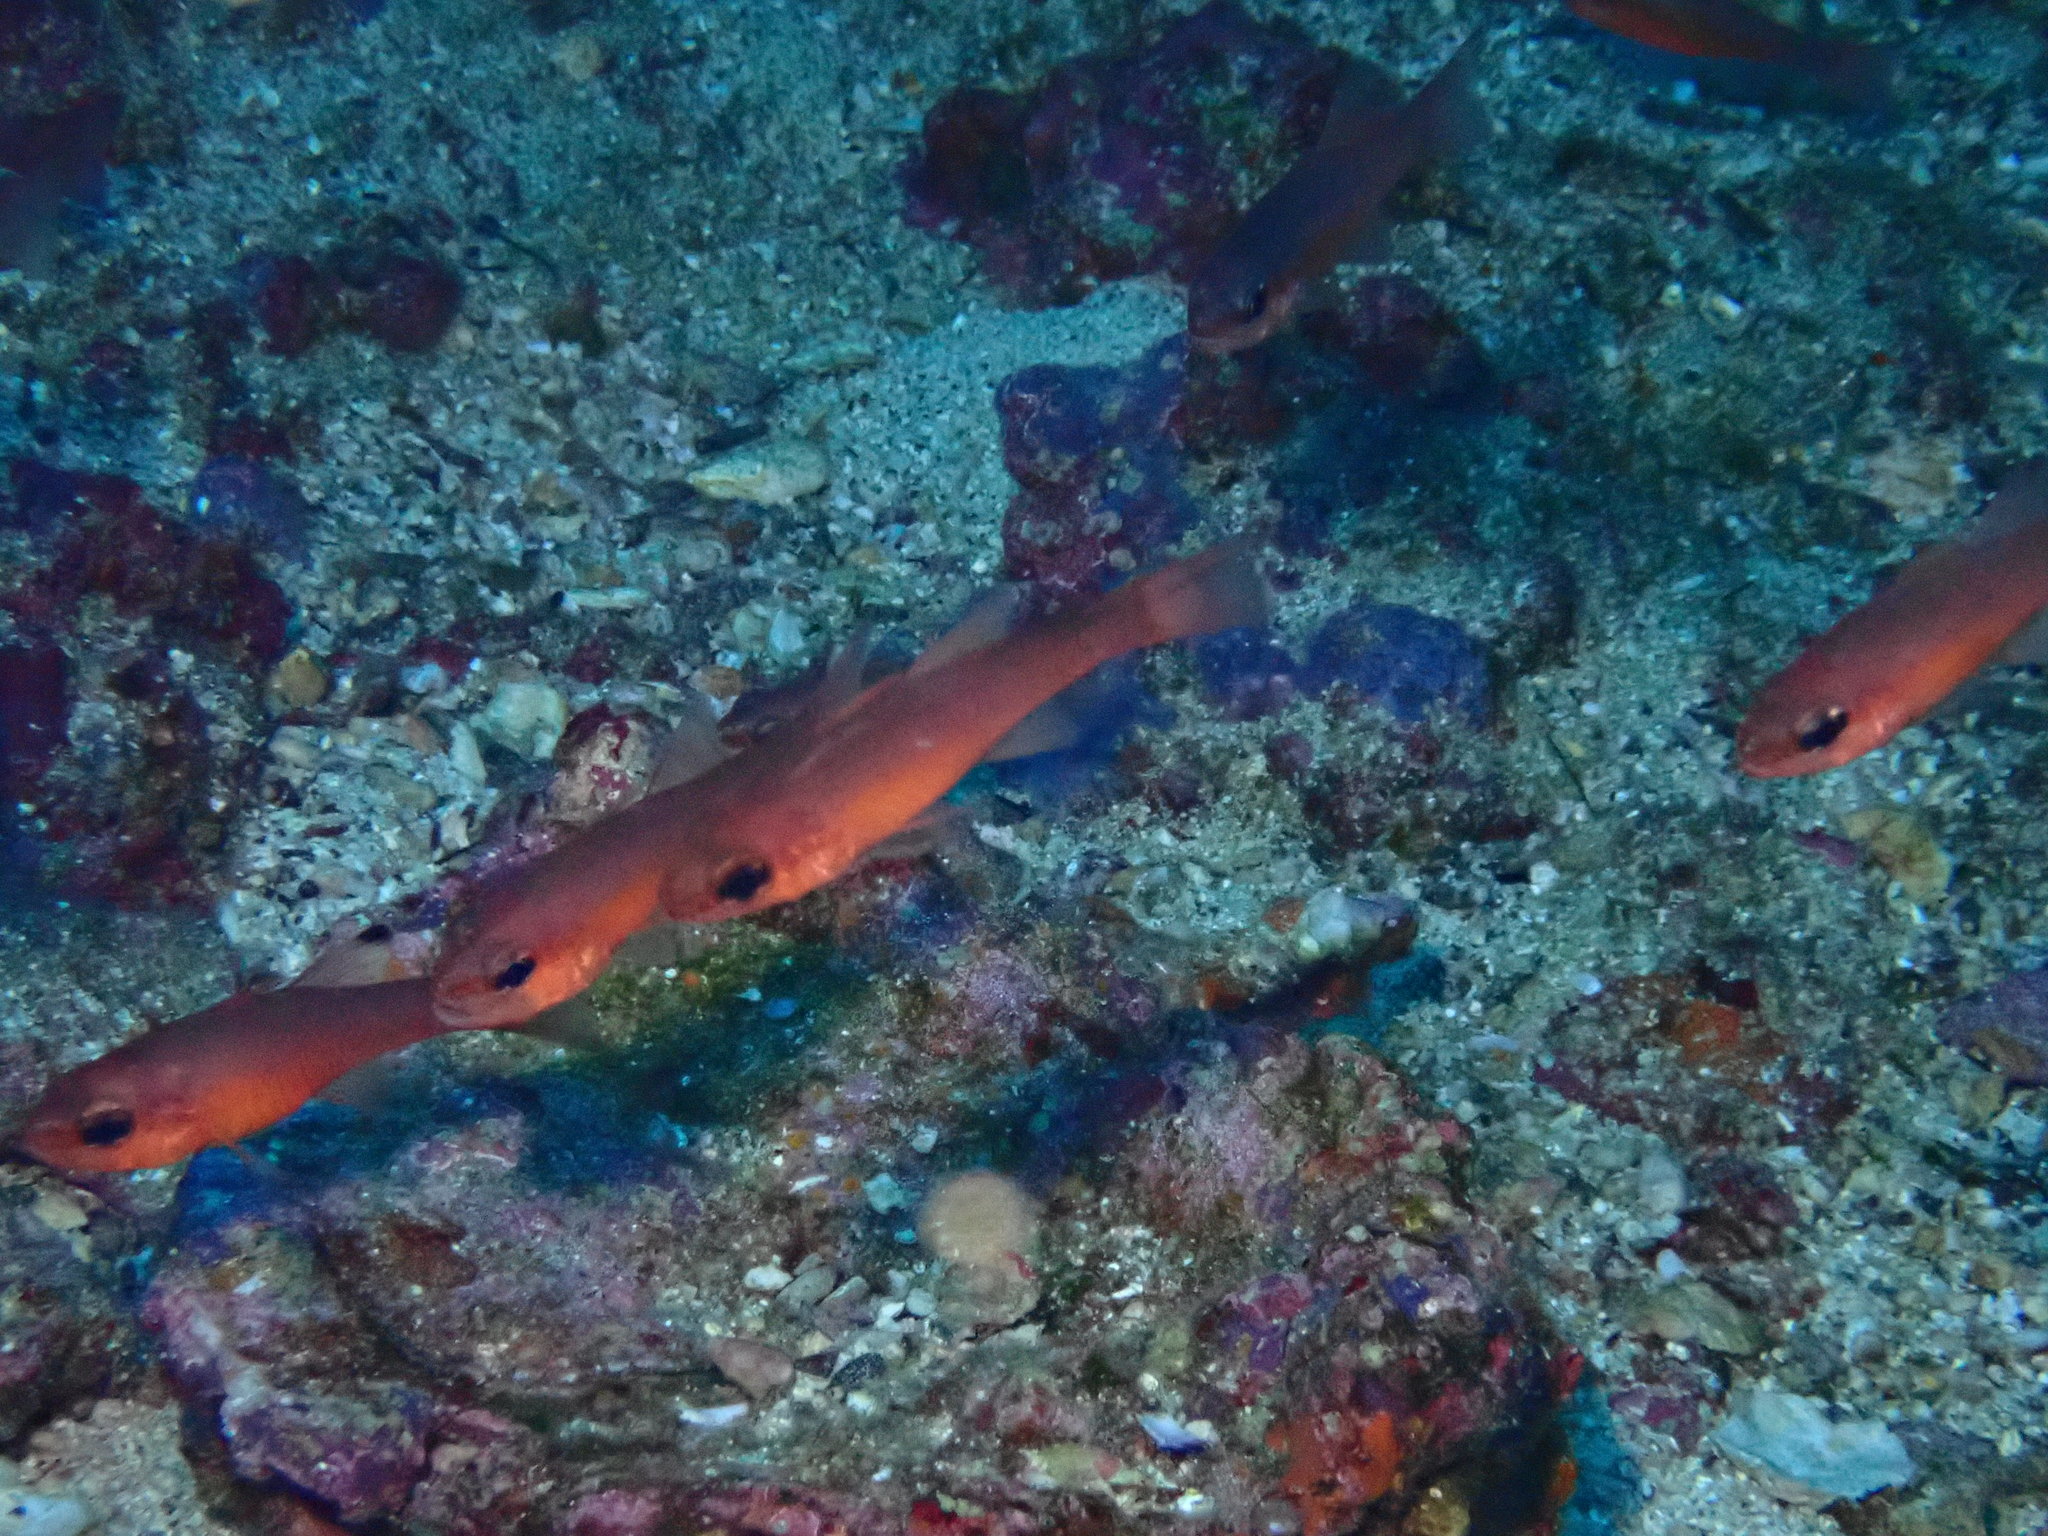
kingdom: Animalia
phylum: Chordata
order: Perciformes
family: Apogonidae
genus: Apogon
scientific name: Apogon atradorsatus
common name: Blacktip cardinalfish
